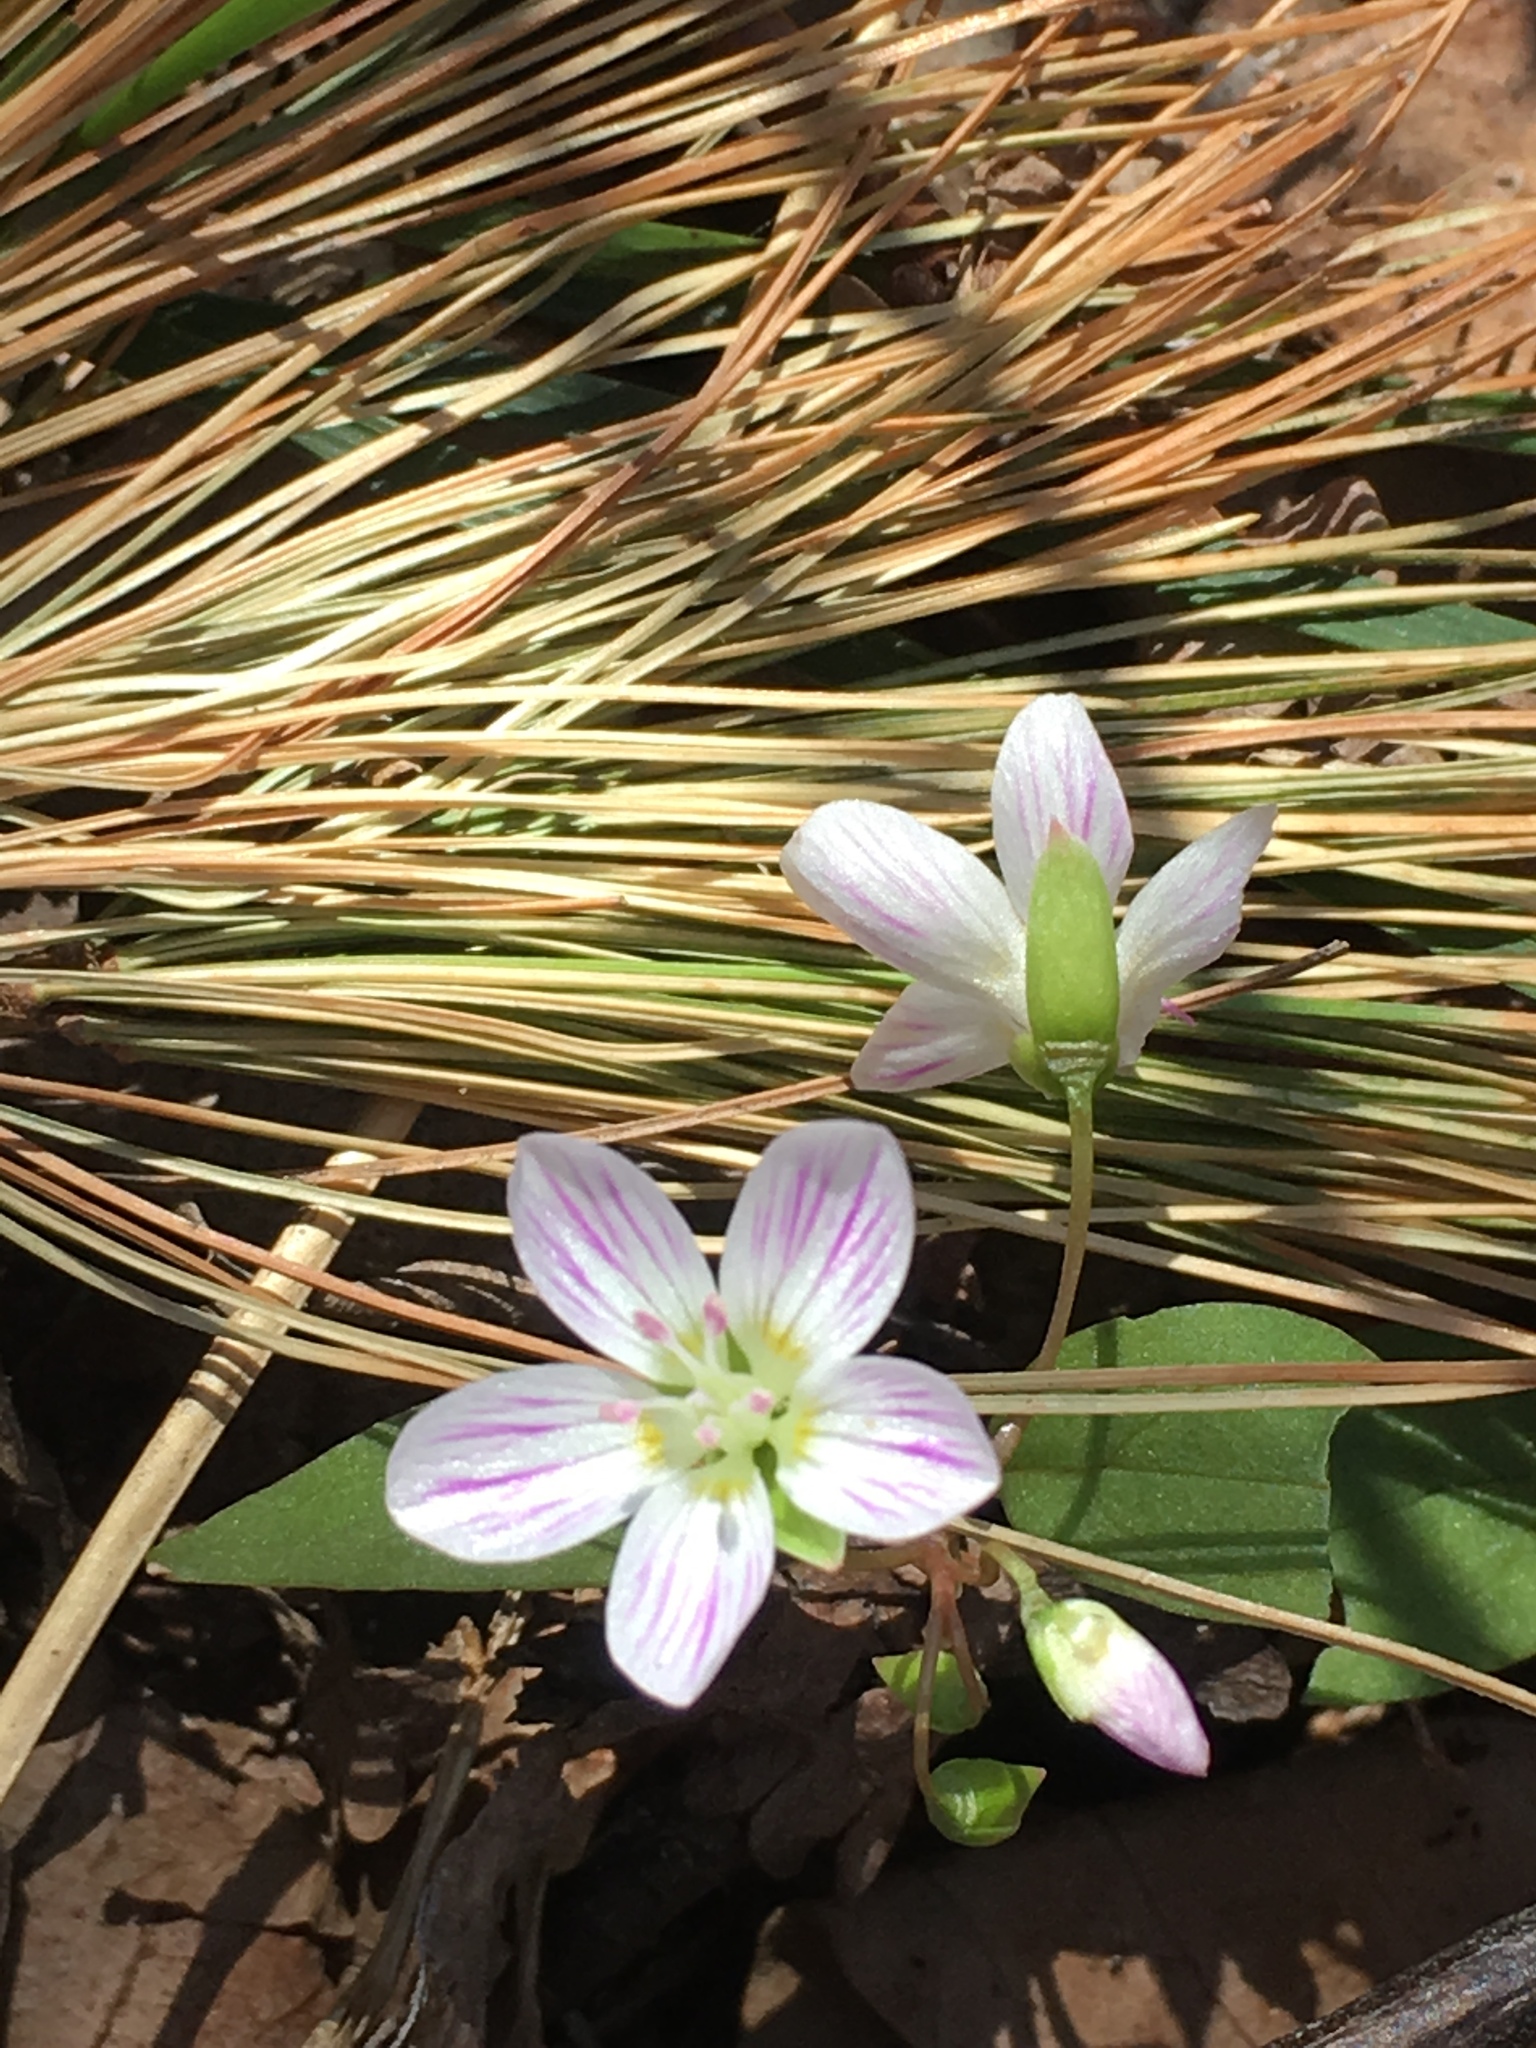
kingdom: Plantae
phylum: Tracheophyta
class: Magnoliopsida
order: Caryophyllales
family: Montiaceae
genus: Claytonia
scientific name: Claytonia caroliniana
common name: Carolina spring beauty
